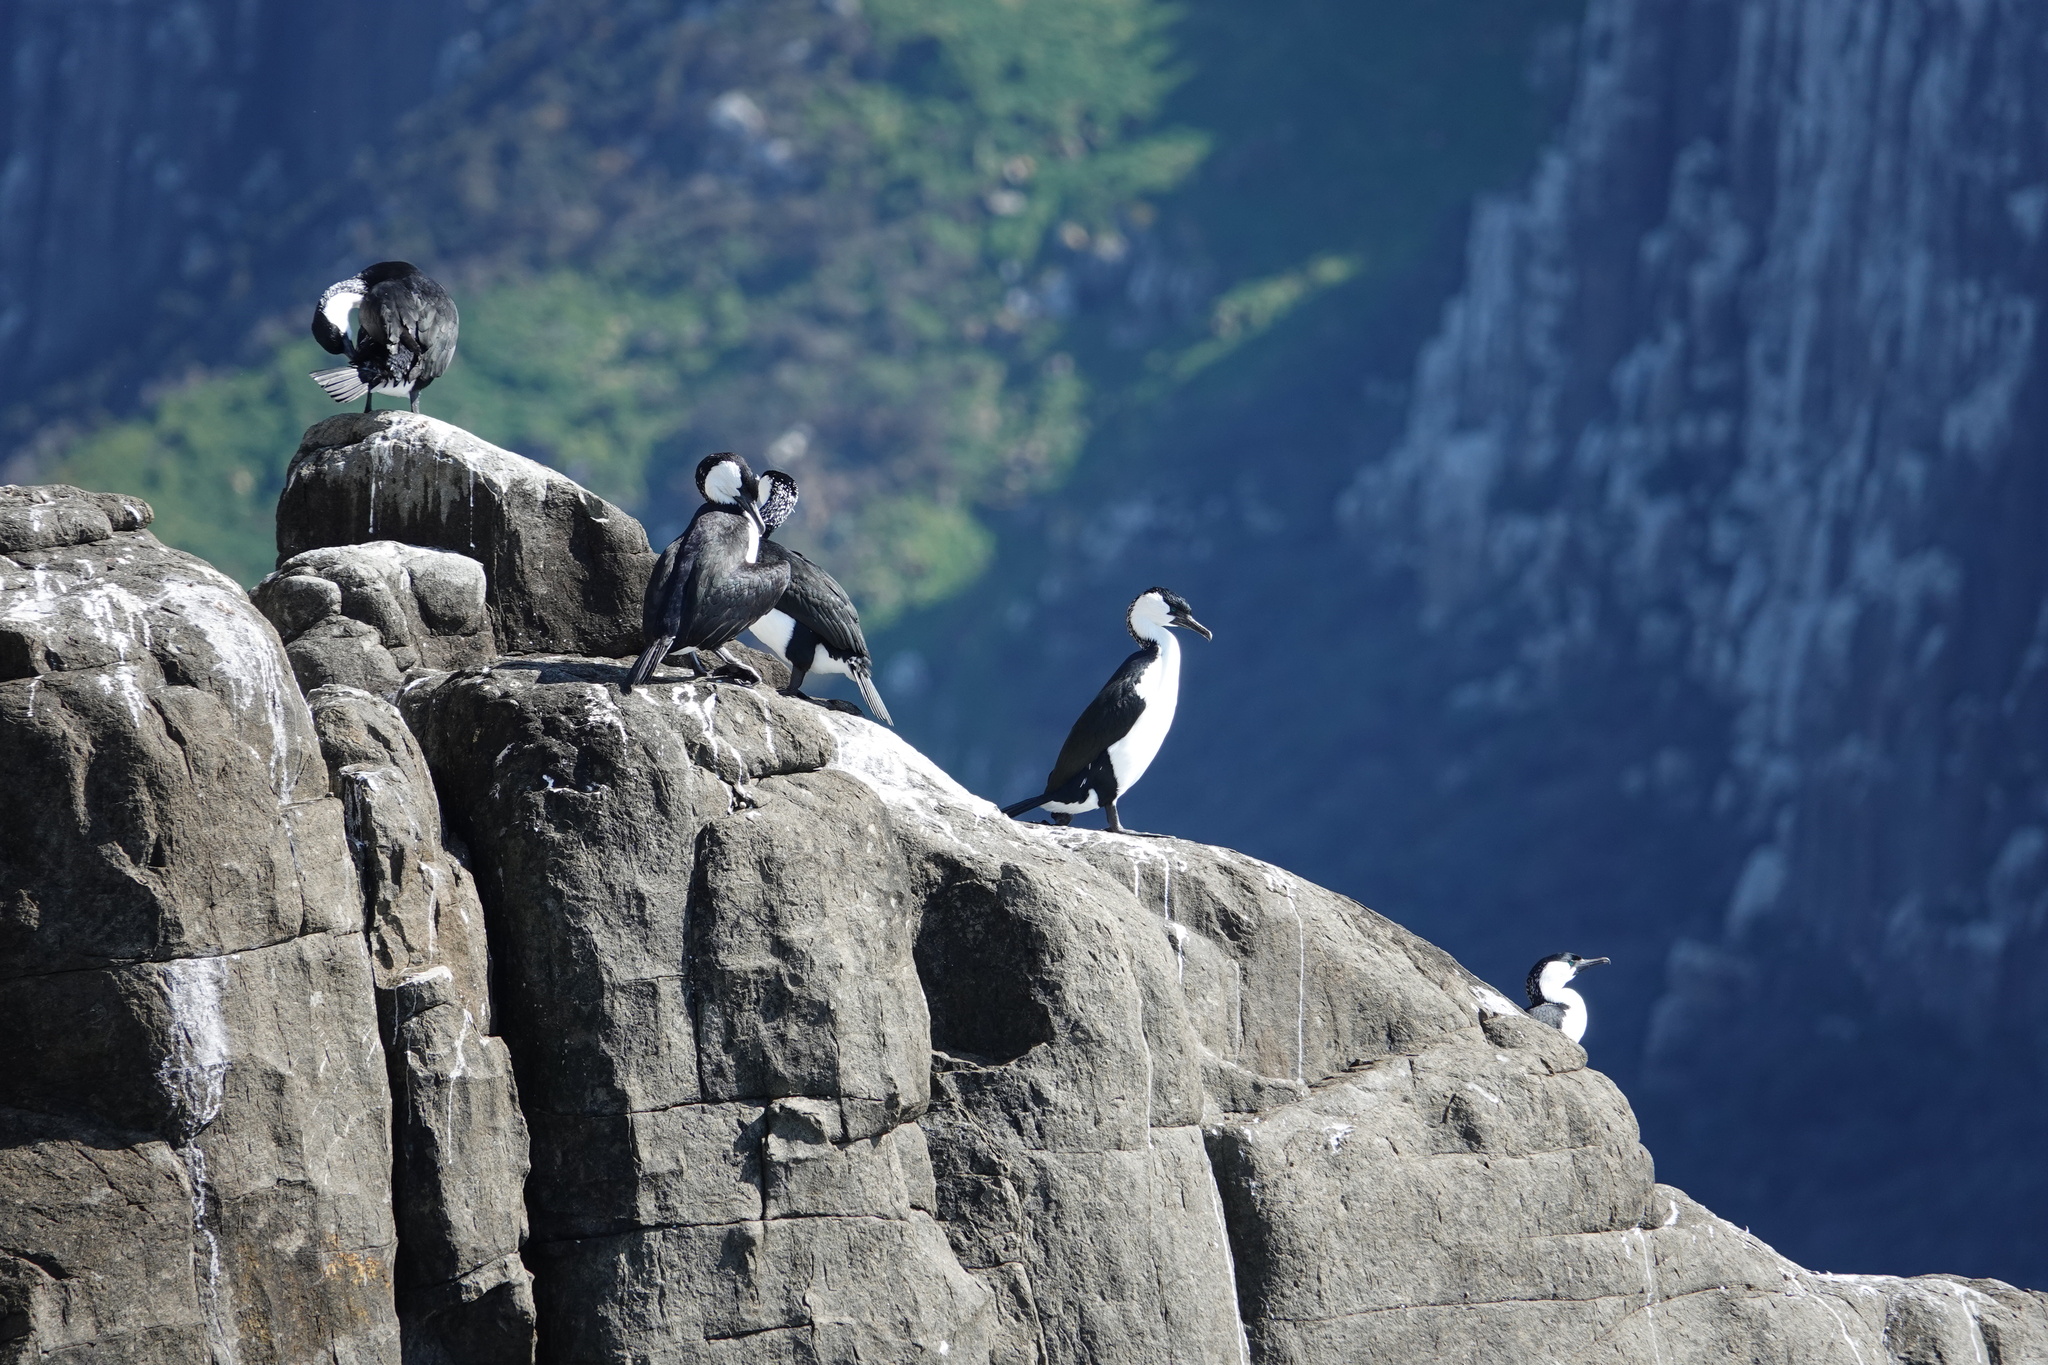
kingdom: Animalia
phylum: Chordata
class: Aves
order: Suliformes
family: Phalacrocoracidae
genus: Phalacrocorax
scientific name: Phalacrocorax fuscescens
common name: Black-faced cormorant
